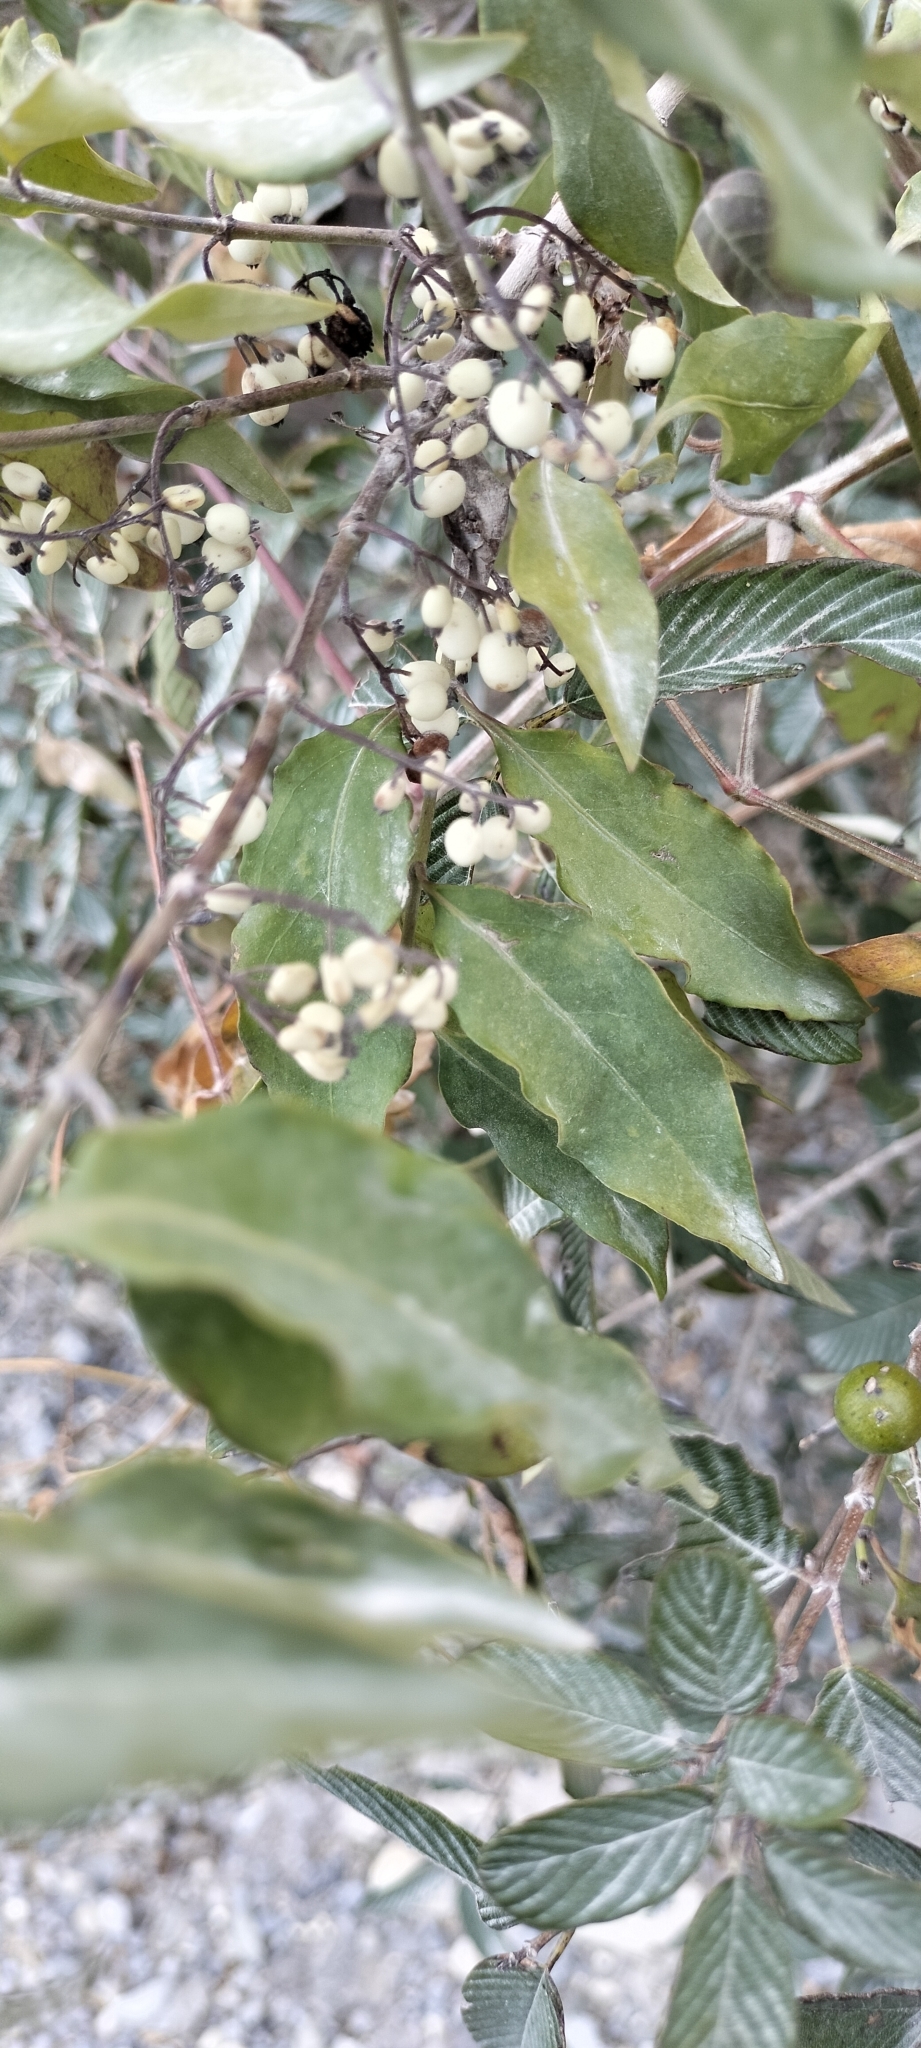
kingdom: Plantae
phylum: Tracheophyta
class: Magnoliopsida
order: Gentianales
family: Rubiaceae
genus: Chiococca
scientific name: Chiococca alba
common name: Snowberry
